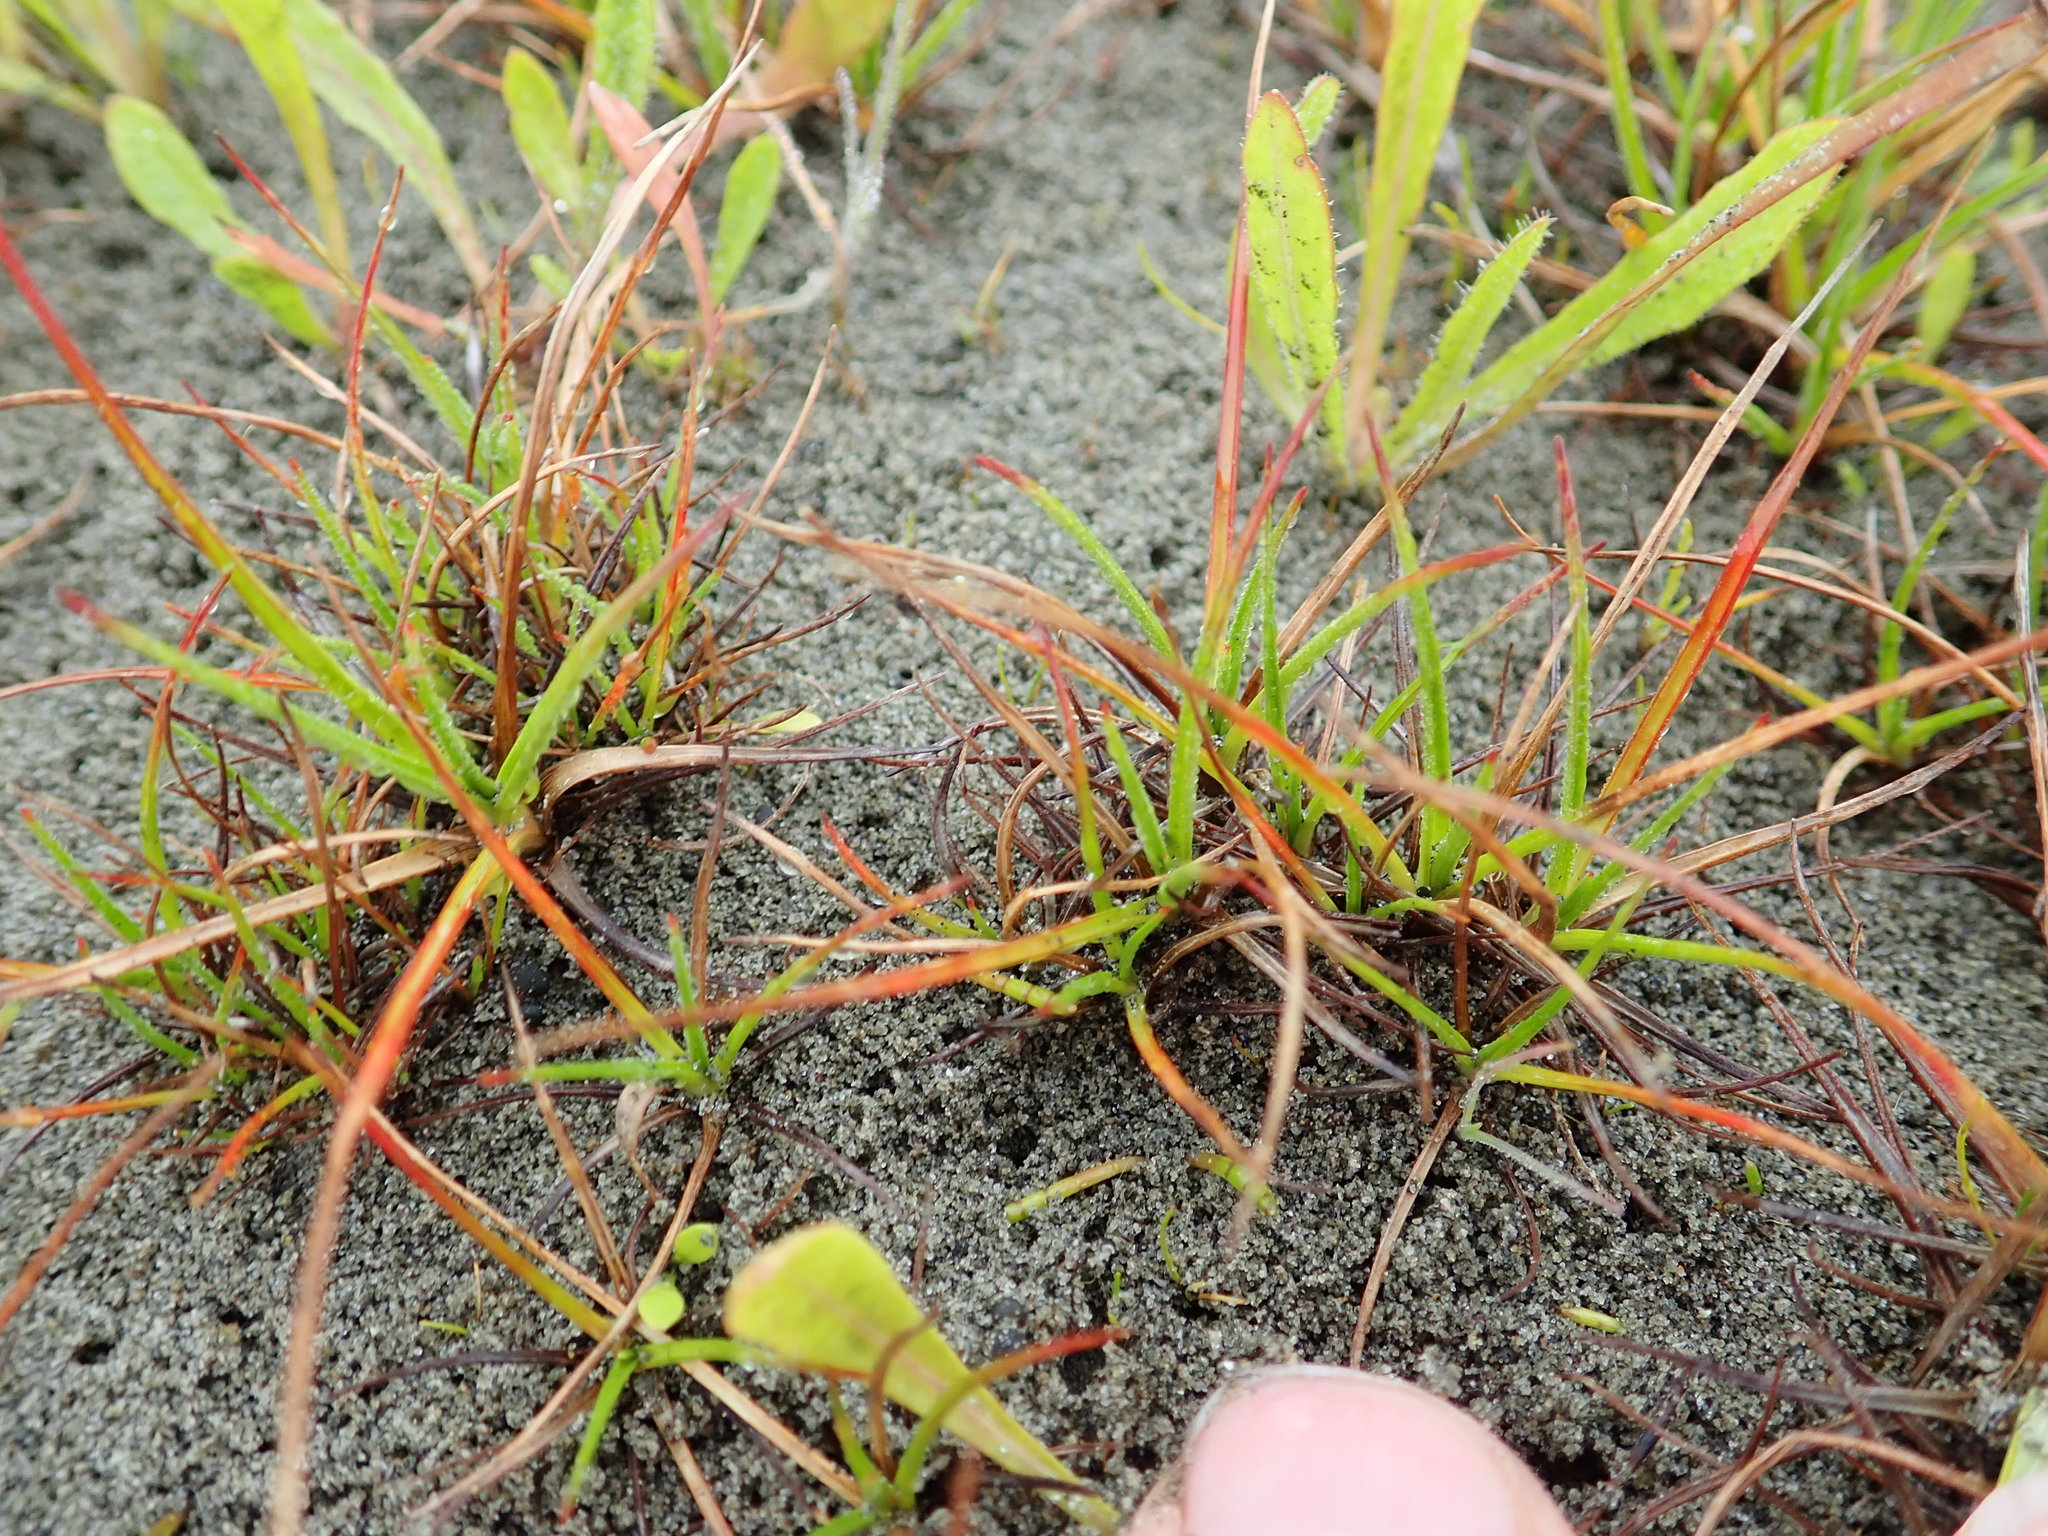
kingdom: Plantae
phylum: Tracheophyta
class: Liliopsida
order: Poales
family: Juncaceae
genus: Juncus
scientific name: Juncus caespiticius
